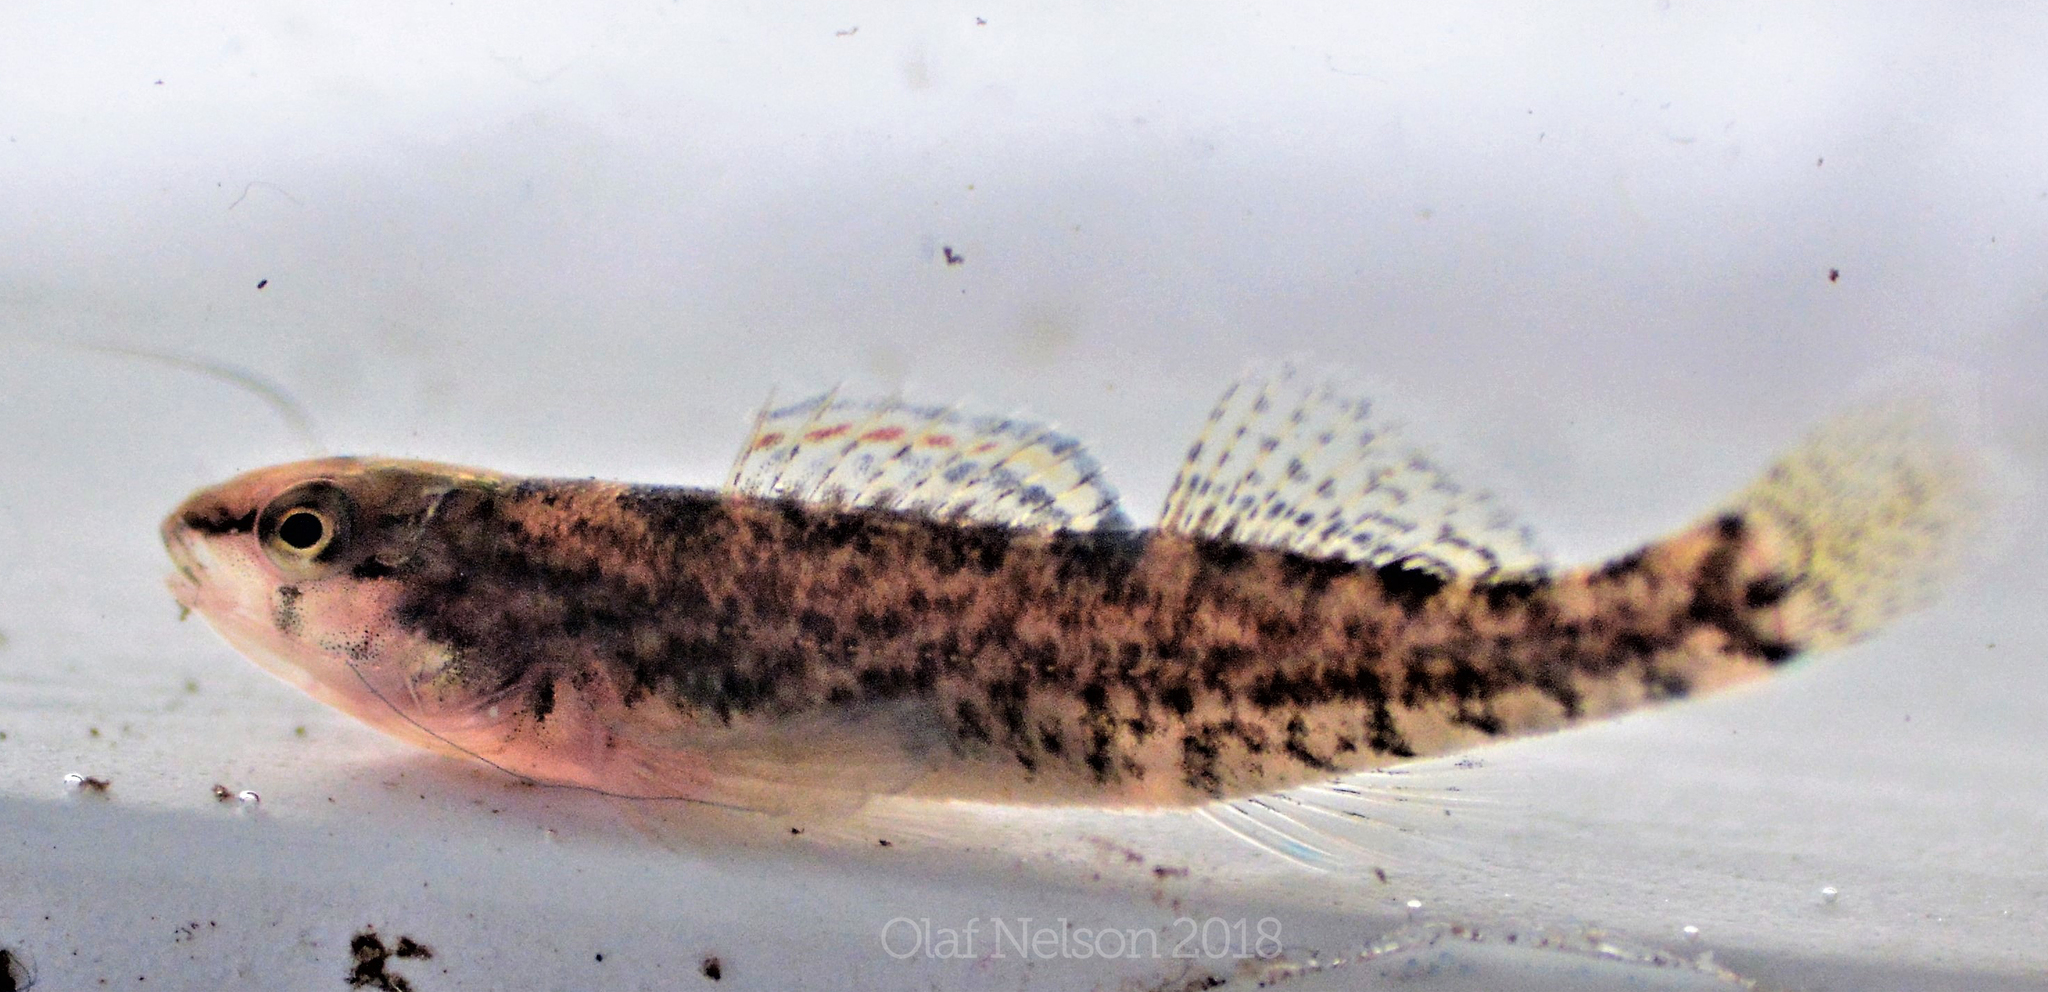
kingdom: Animalia
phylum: Chordata
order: Perciformes
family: Percidae
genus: Etheostoma
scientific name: Etheostoma caeruleum
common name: Rainbow darter
